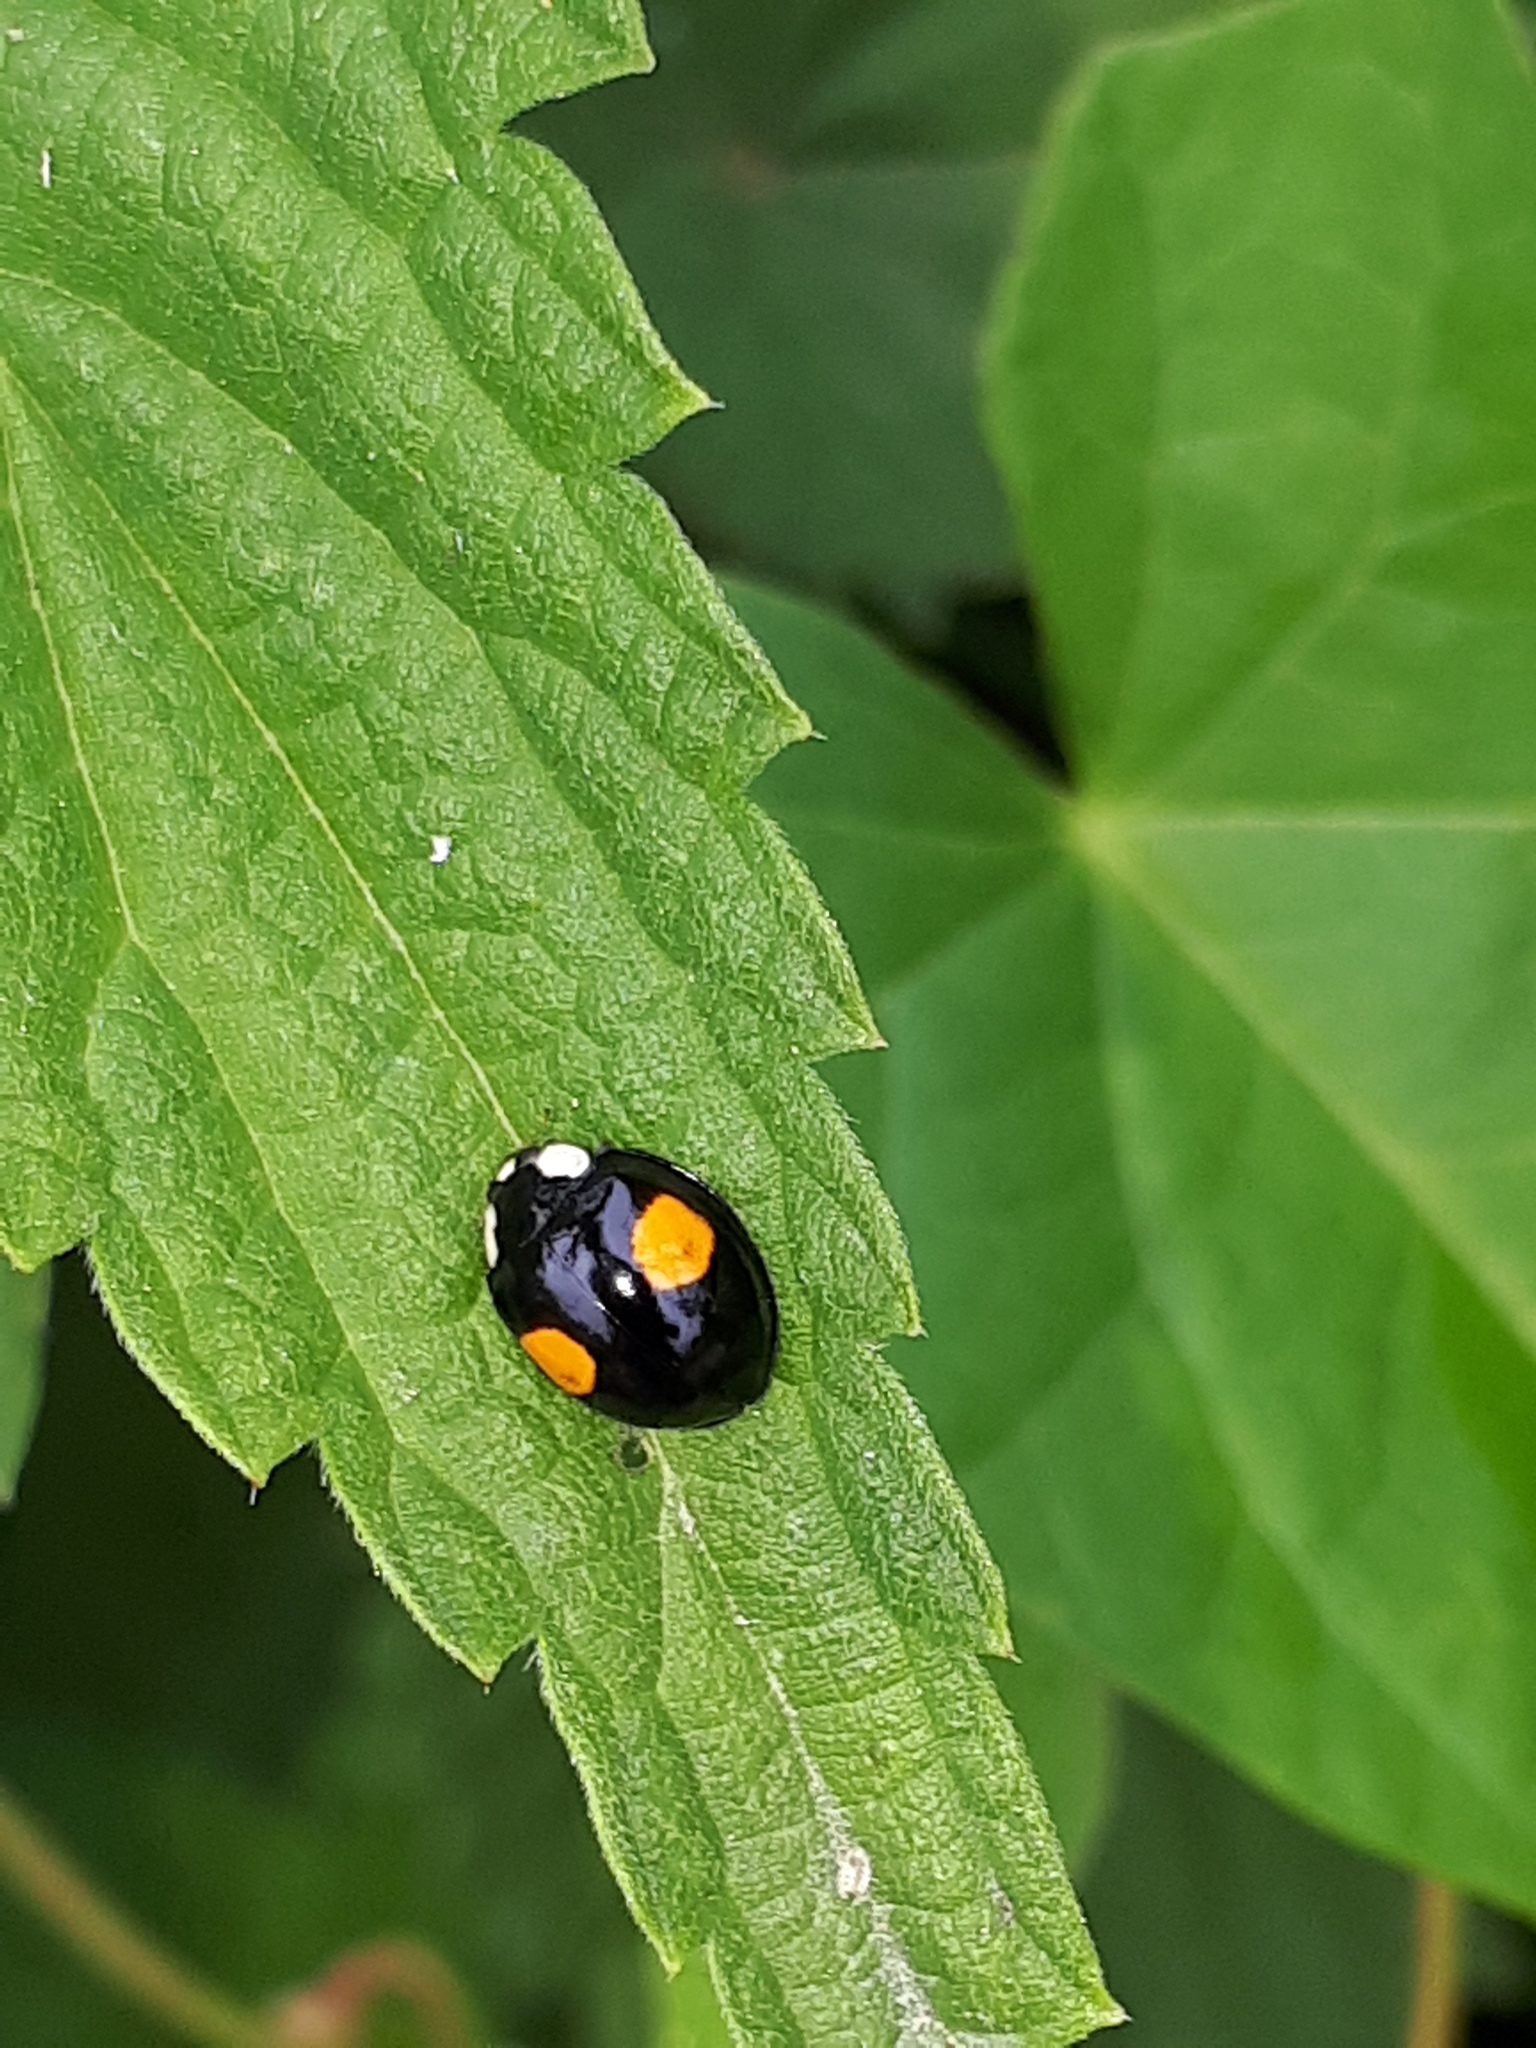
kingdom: Animalia
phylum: Arthropoda
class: Insecta
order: Coleoptera
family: Coccinellidae
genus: Harmonia
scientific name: Harmonia axyridis
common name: Harlequin ladybird
